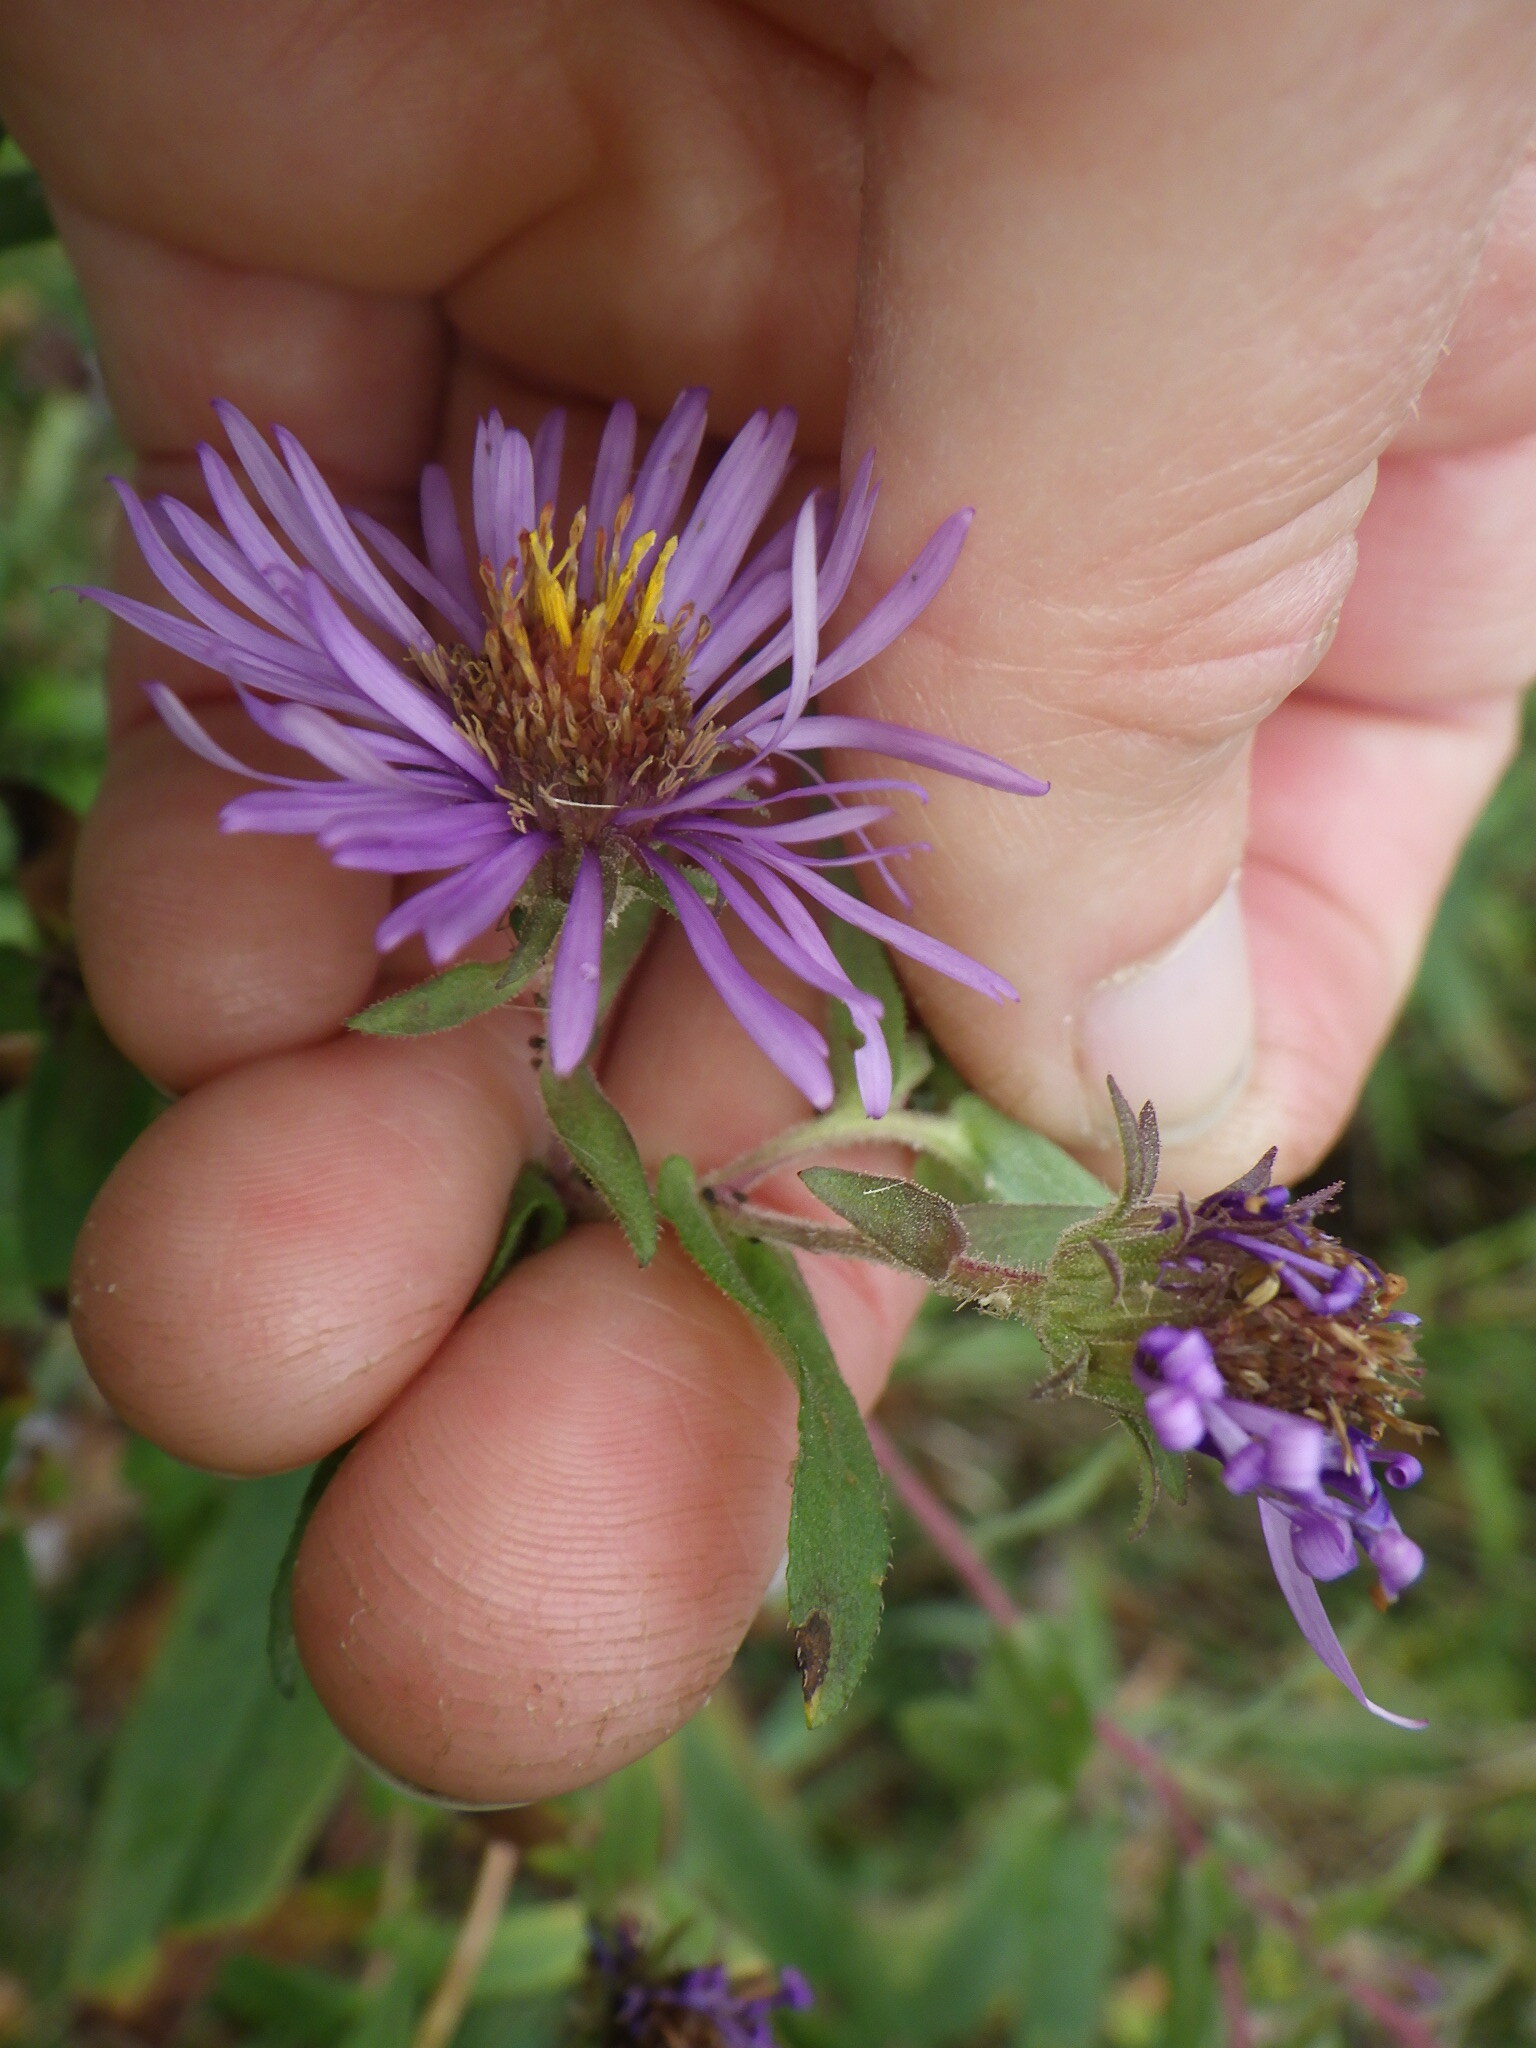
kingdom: Plantae
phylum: Tracheophyta
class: Magnoliopsida
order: Asterales
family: Asteraceae
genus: Symphyotrichum
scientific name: Symphyotrichum novae-angliae
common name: Michaelmas daisy
